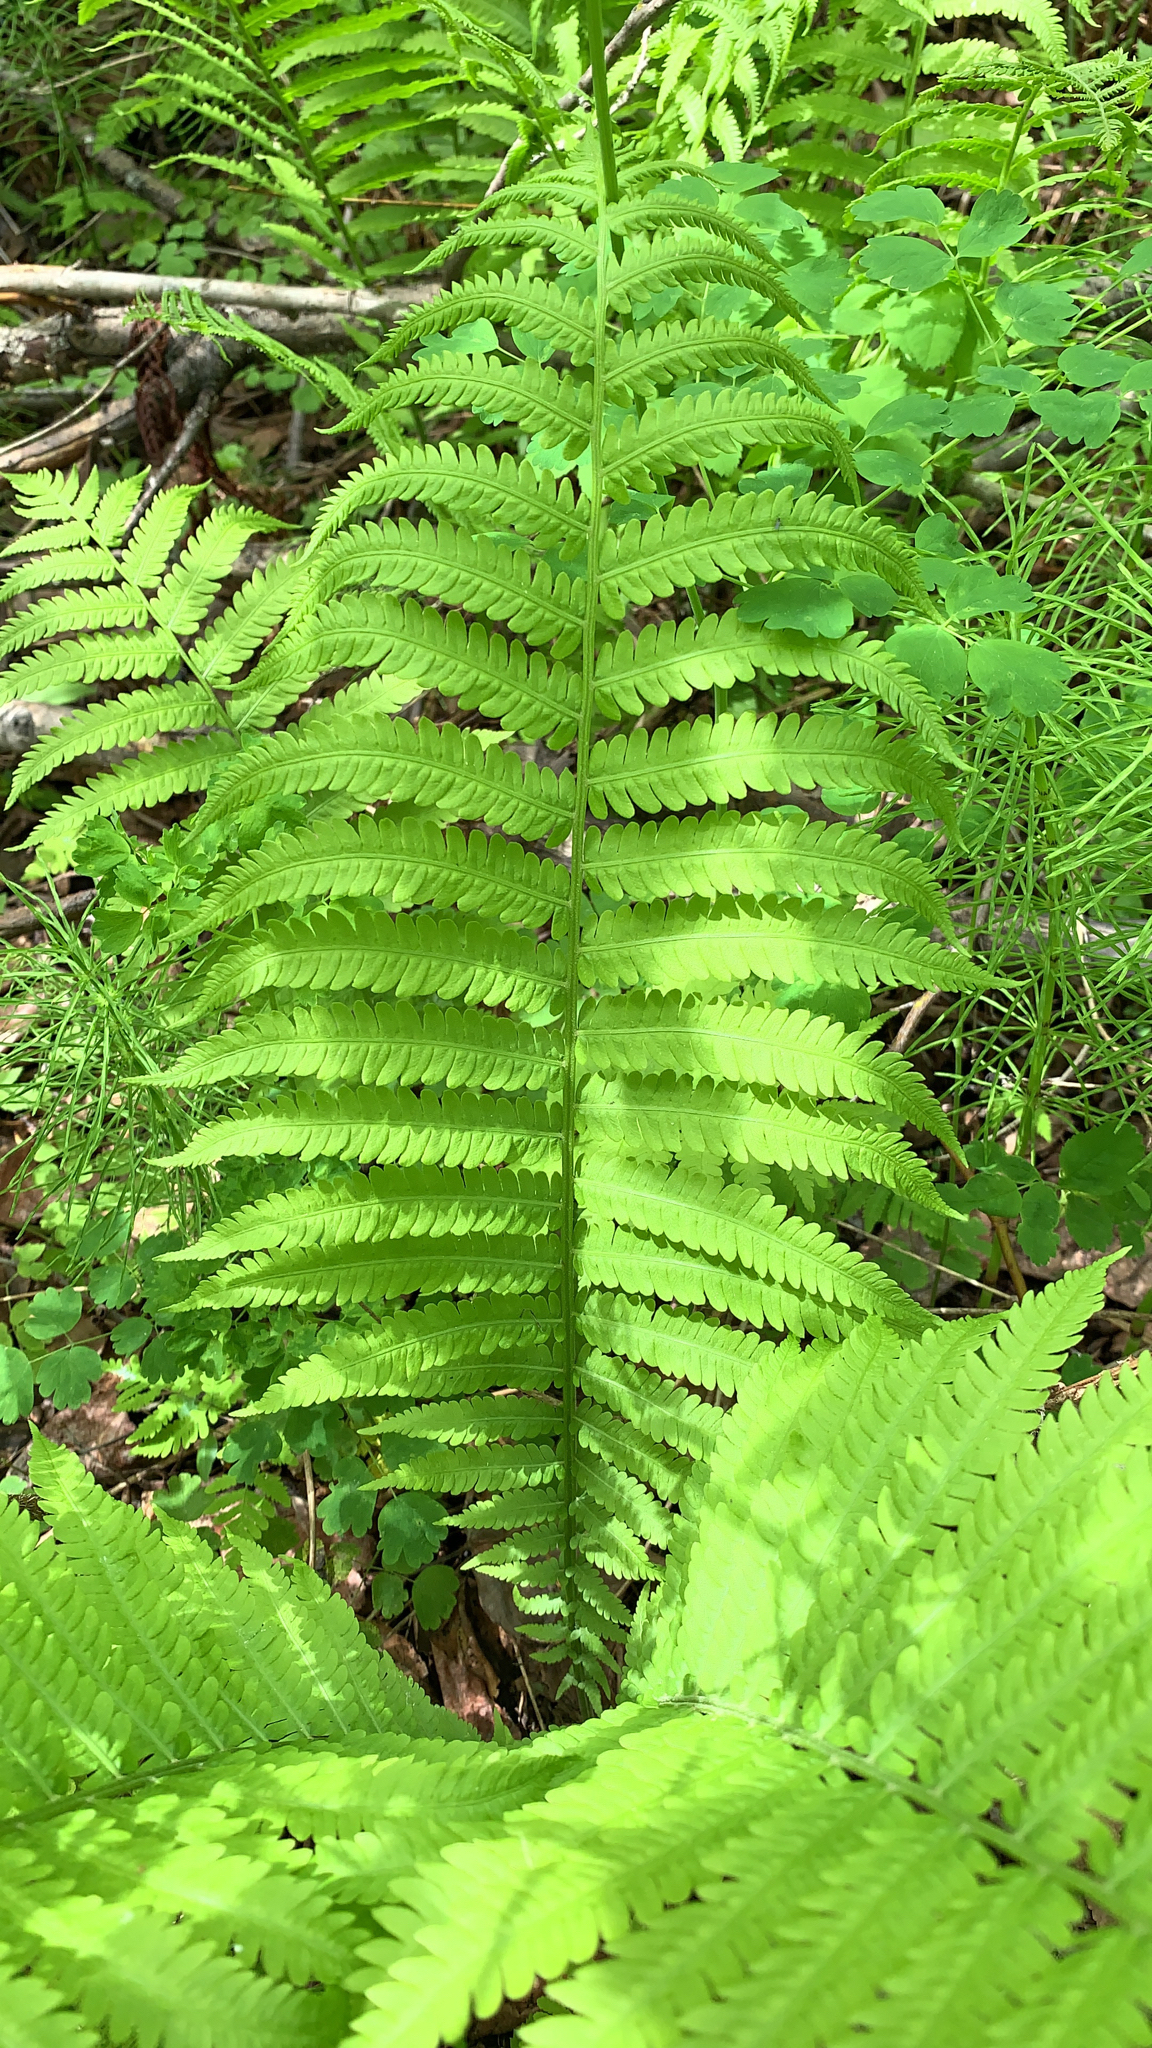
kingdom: Plantae
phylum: Tracheophyta
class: Polypodiopsida
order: Polypodiales
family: Onocleaceae
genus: Matteuccia
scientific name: Matteuccia struthiopteris
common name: Ostrich fern
